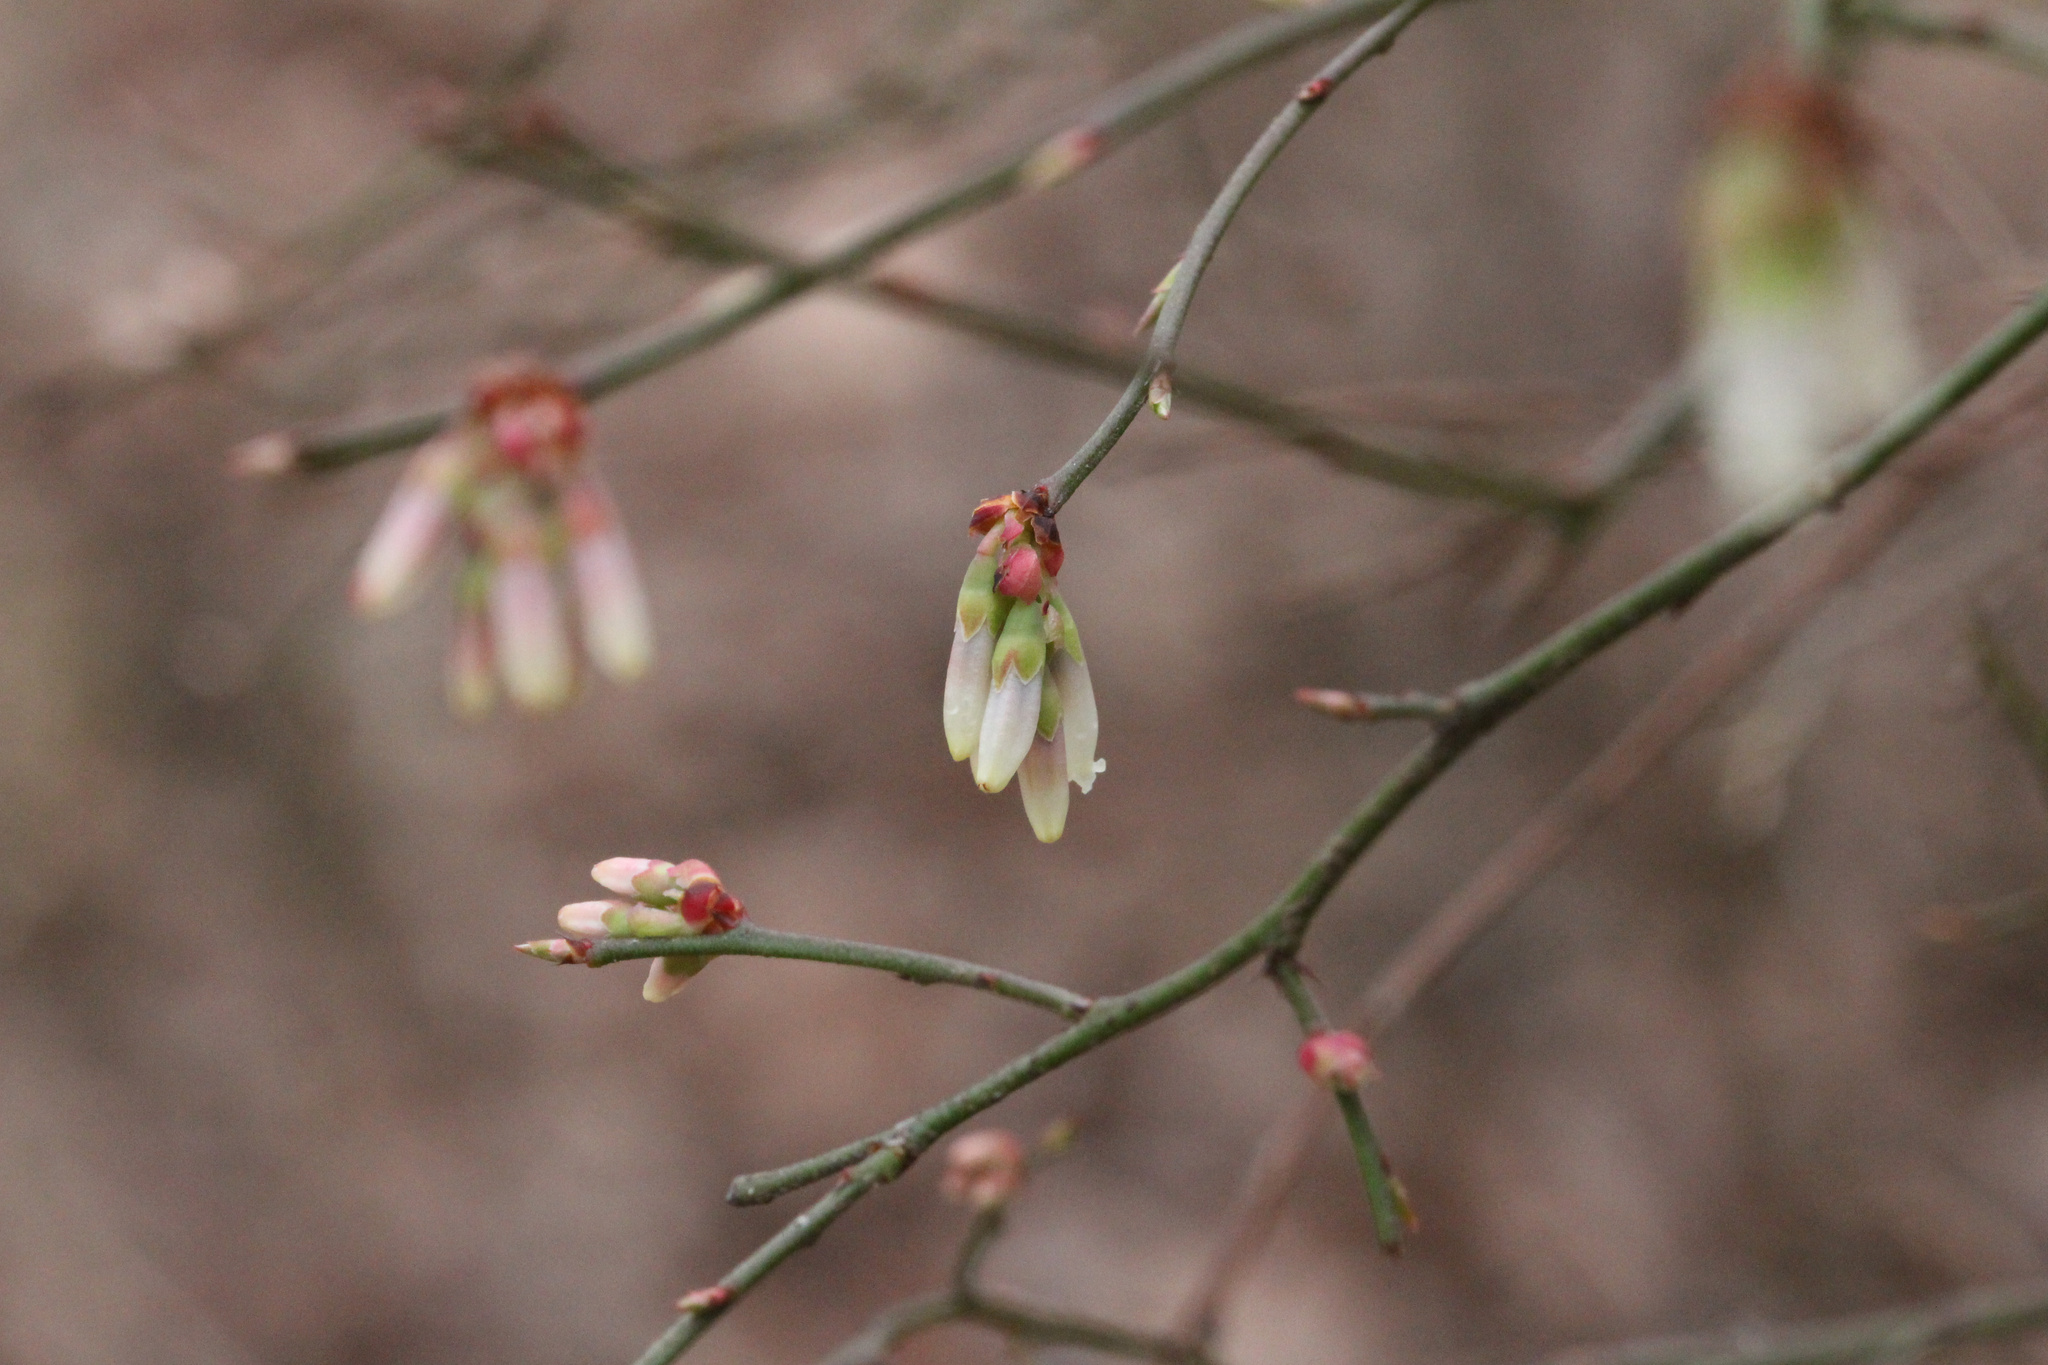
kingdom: Plantae
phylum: Tracheophyta
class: Magnoliopsida
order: Ericales
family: Ericaceae
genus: Vaccinium
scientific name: Vaccinium corymbosum
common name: Blueberry
